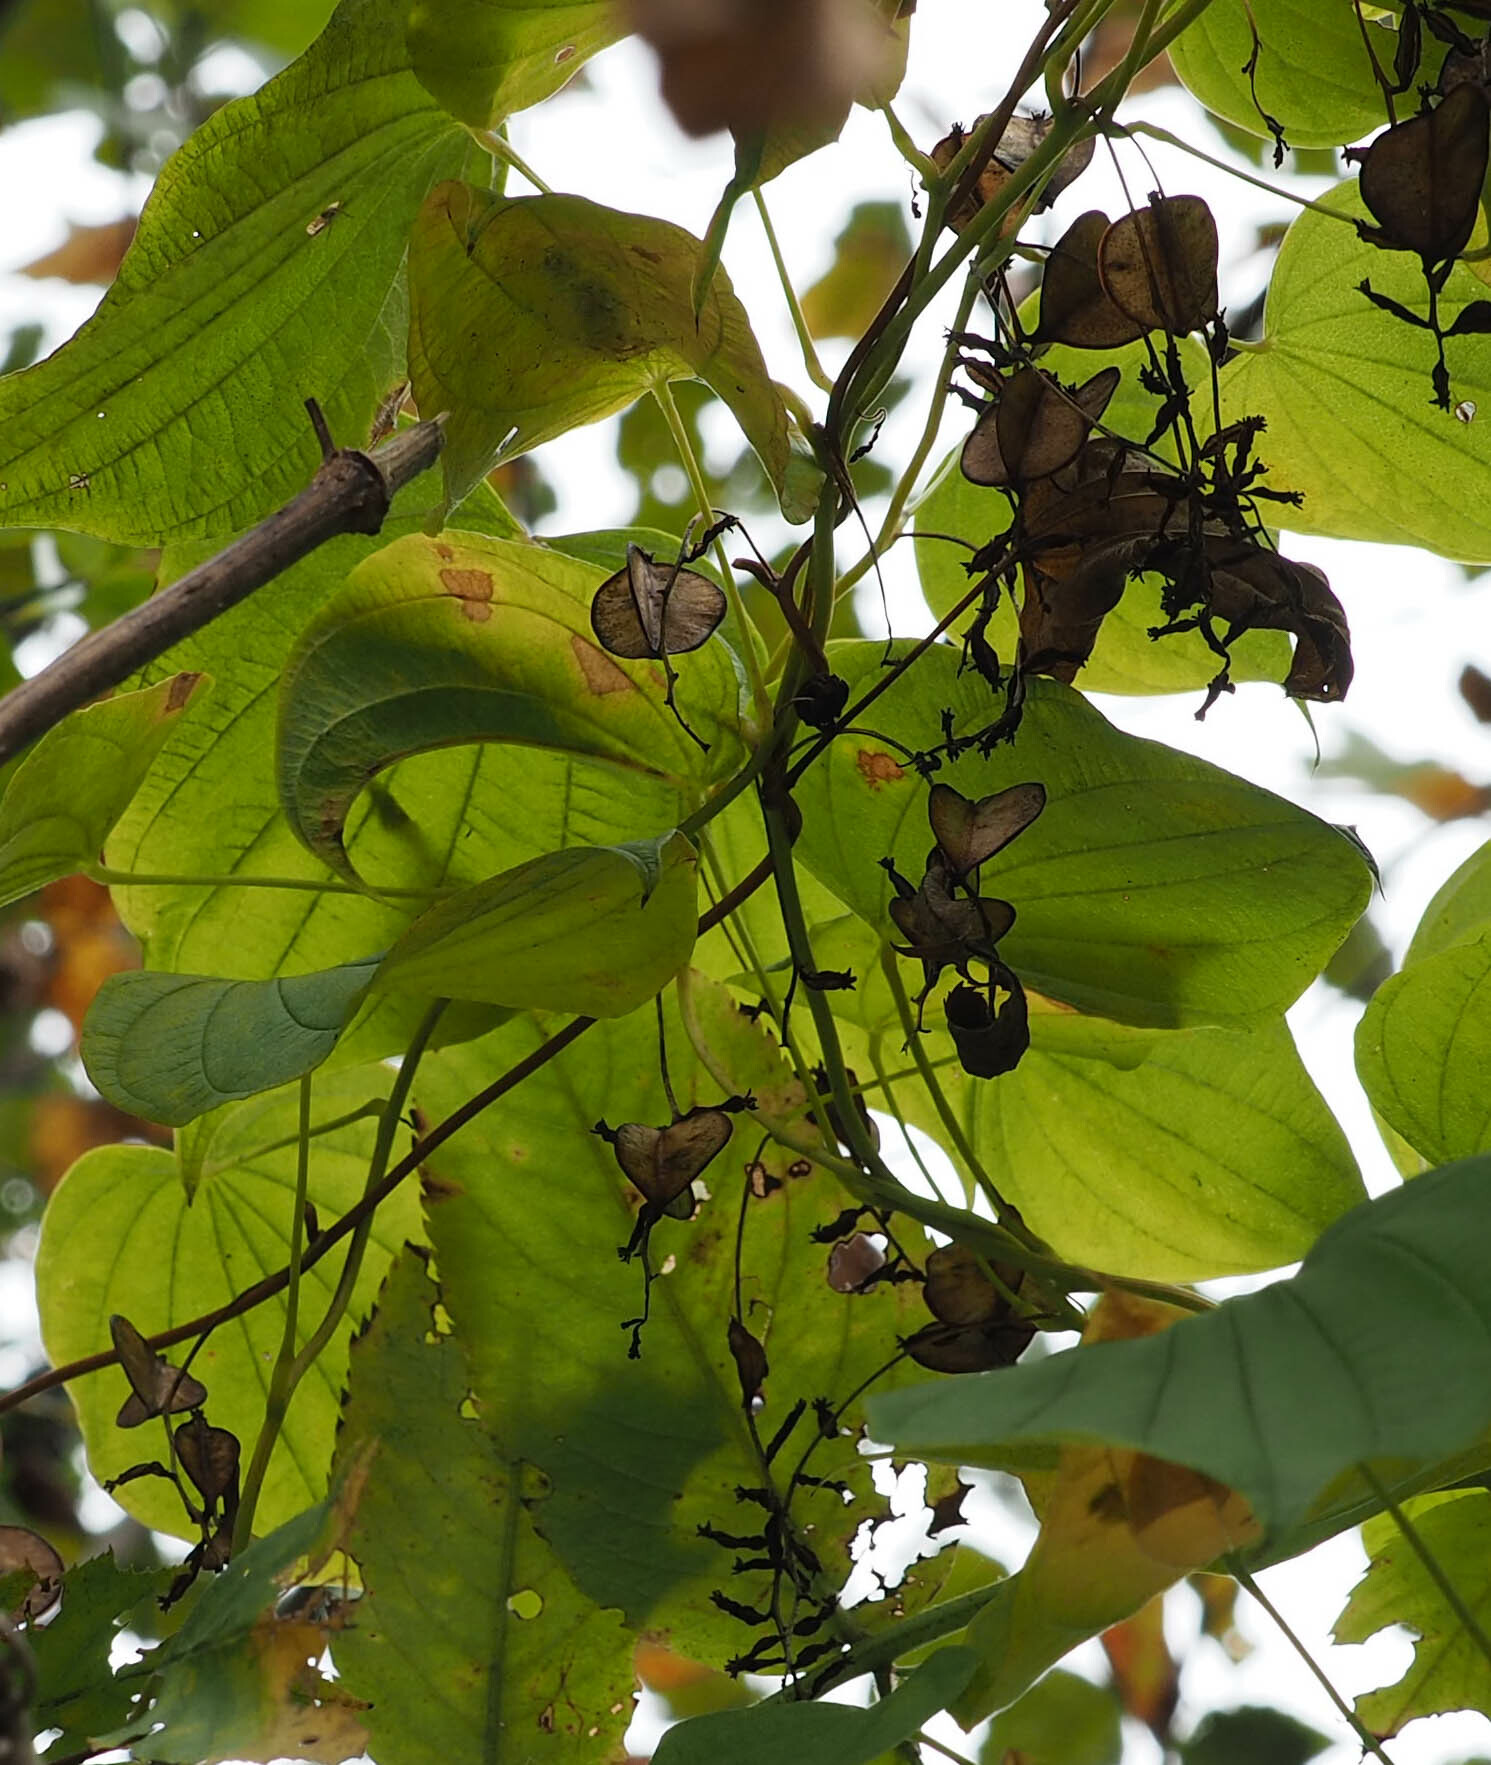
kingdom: Plantae
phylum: Tracheophyta
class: Liliopsida
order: Dioscoreales
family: Dioscoreaceae
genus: Dioscorea
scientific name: Dioscorea villosa
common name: Wild yam
